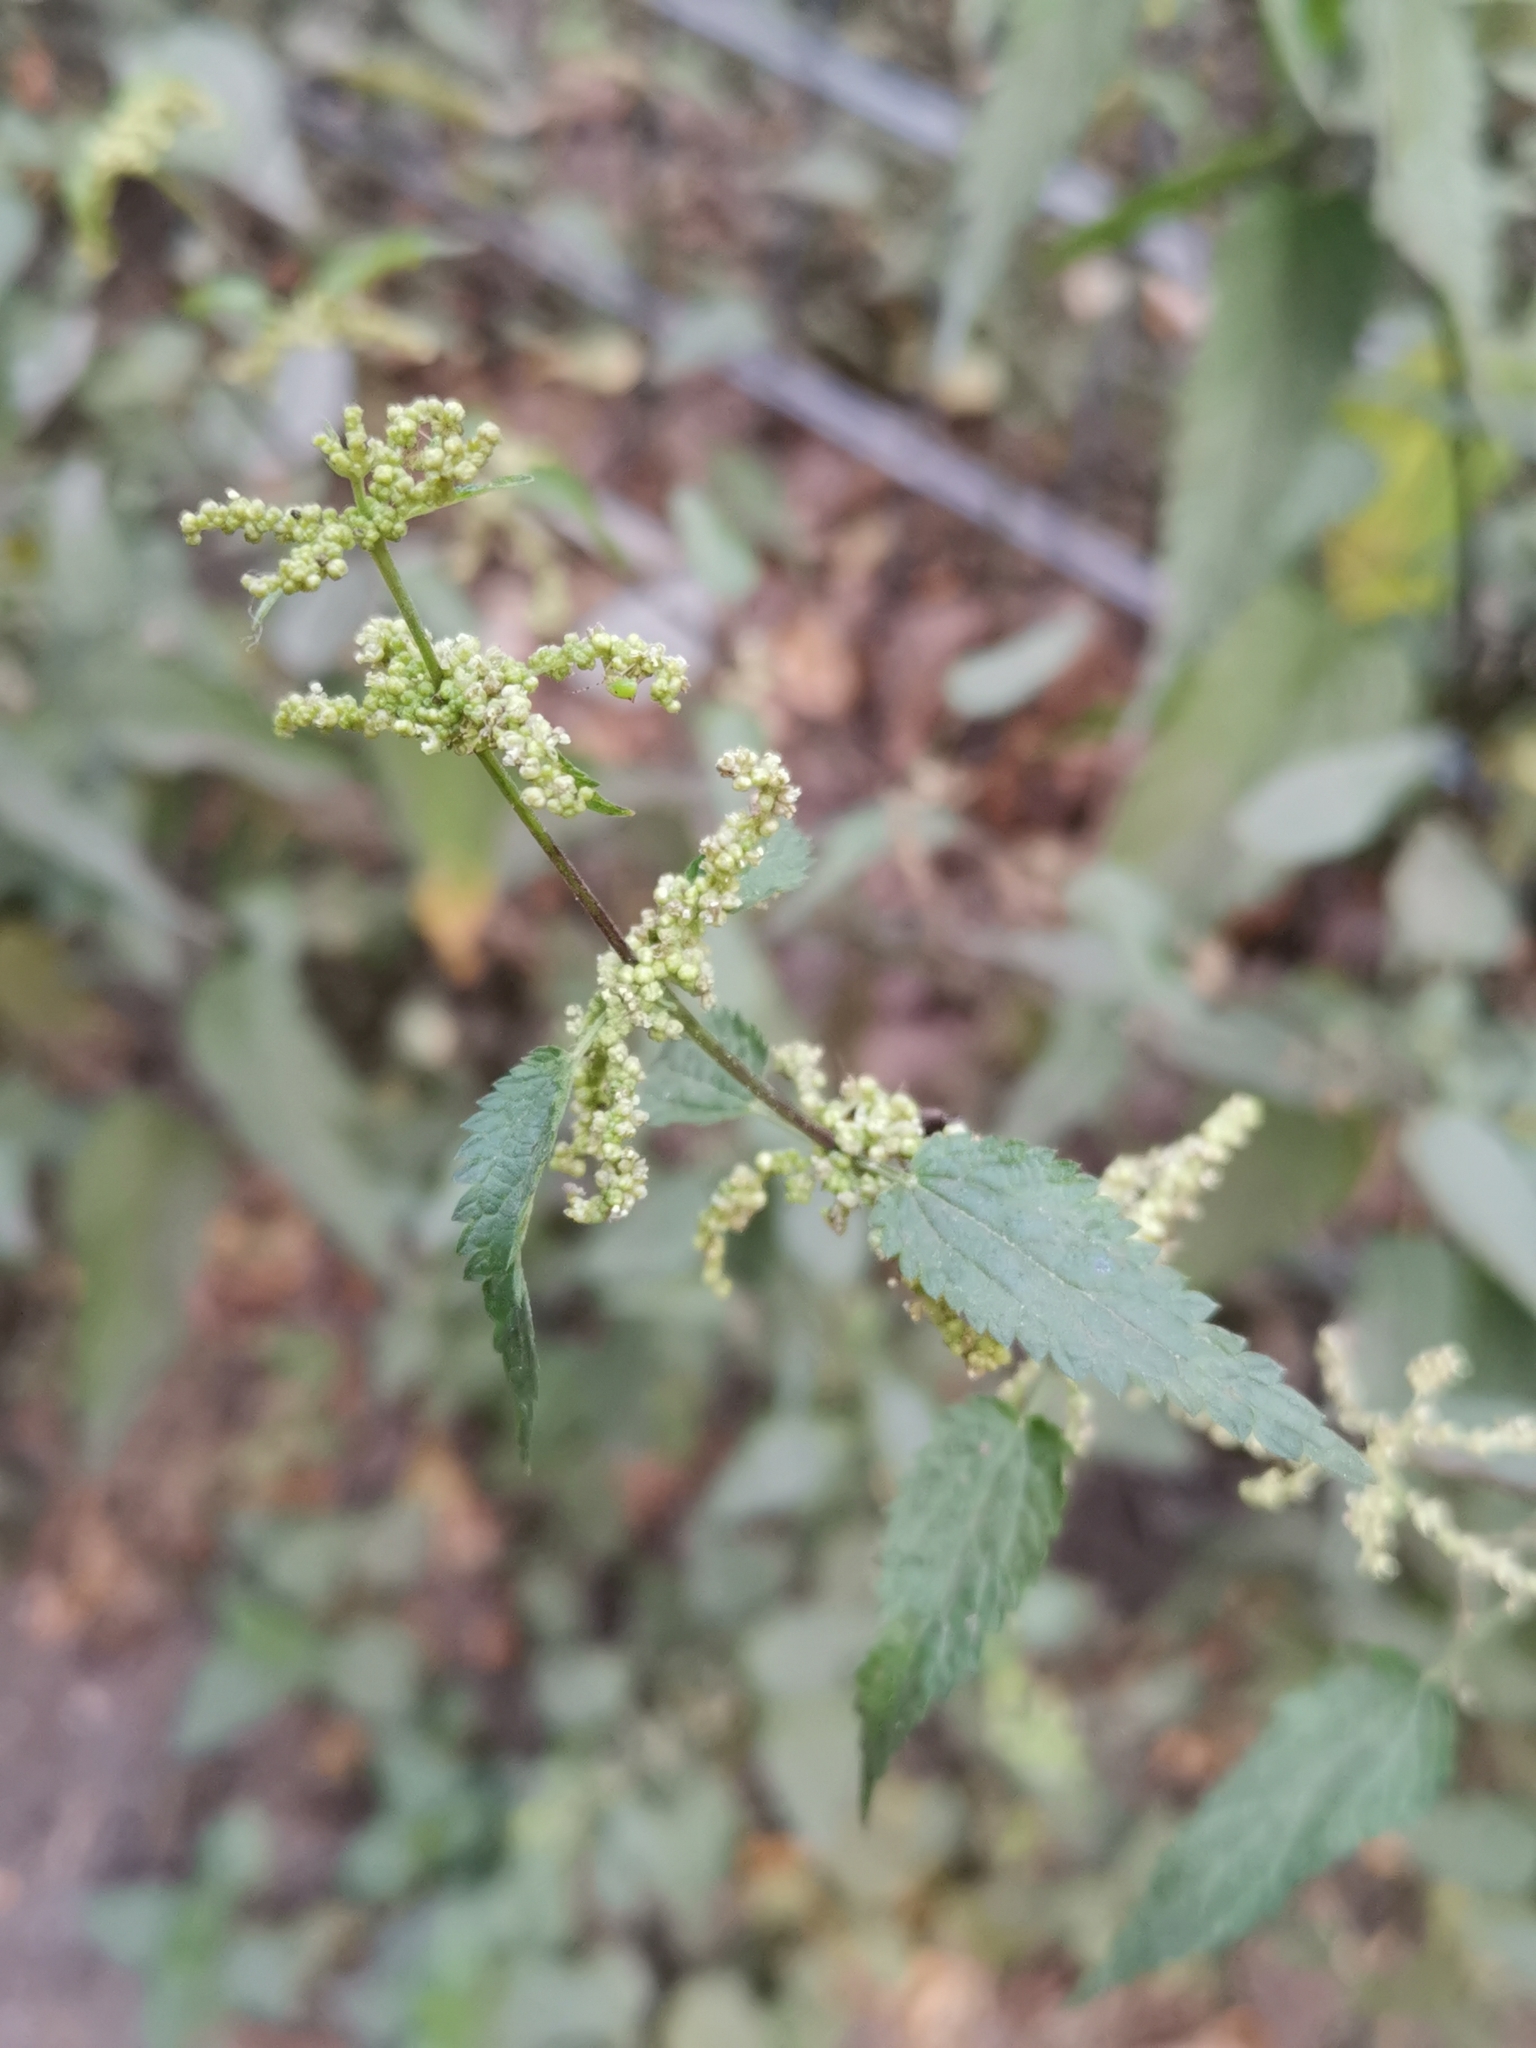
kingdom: Plantae
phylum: Tracheophyta
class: Magnoliopsida
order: Rosales
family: Urticaceae
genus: Urtica
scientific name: Urtica dioica
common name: Common nettle
